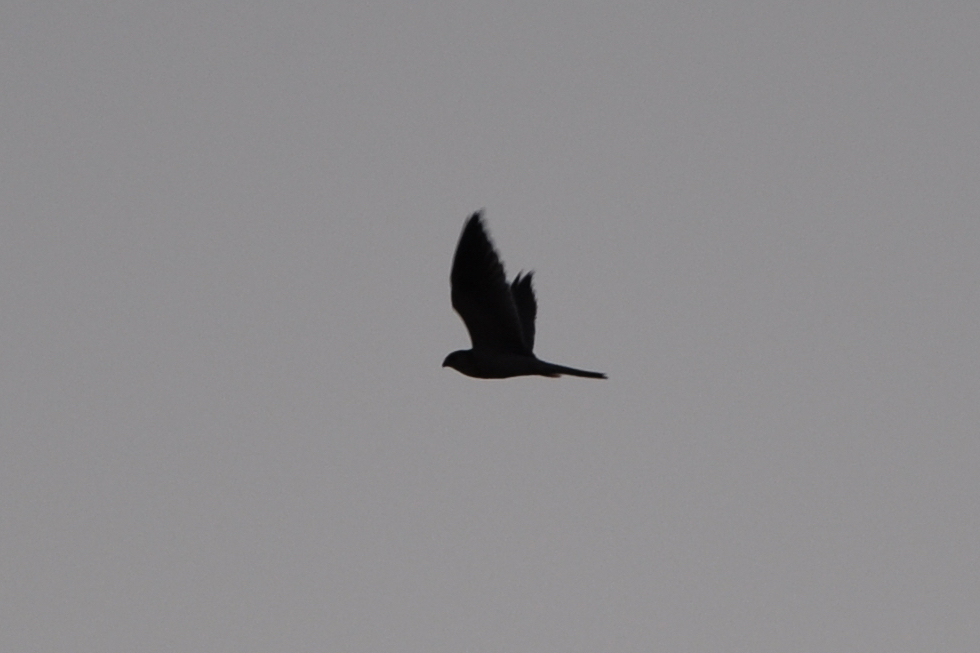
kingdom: Animalia
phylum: Chordata
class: Aves
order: Accipitriformes
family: Accipitridae
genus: Elanus
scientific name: Elanus leucurus
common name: White-tailed kite
